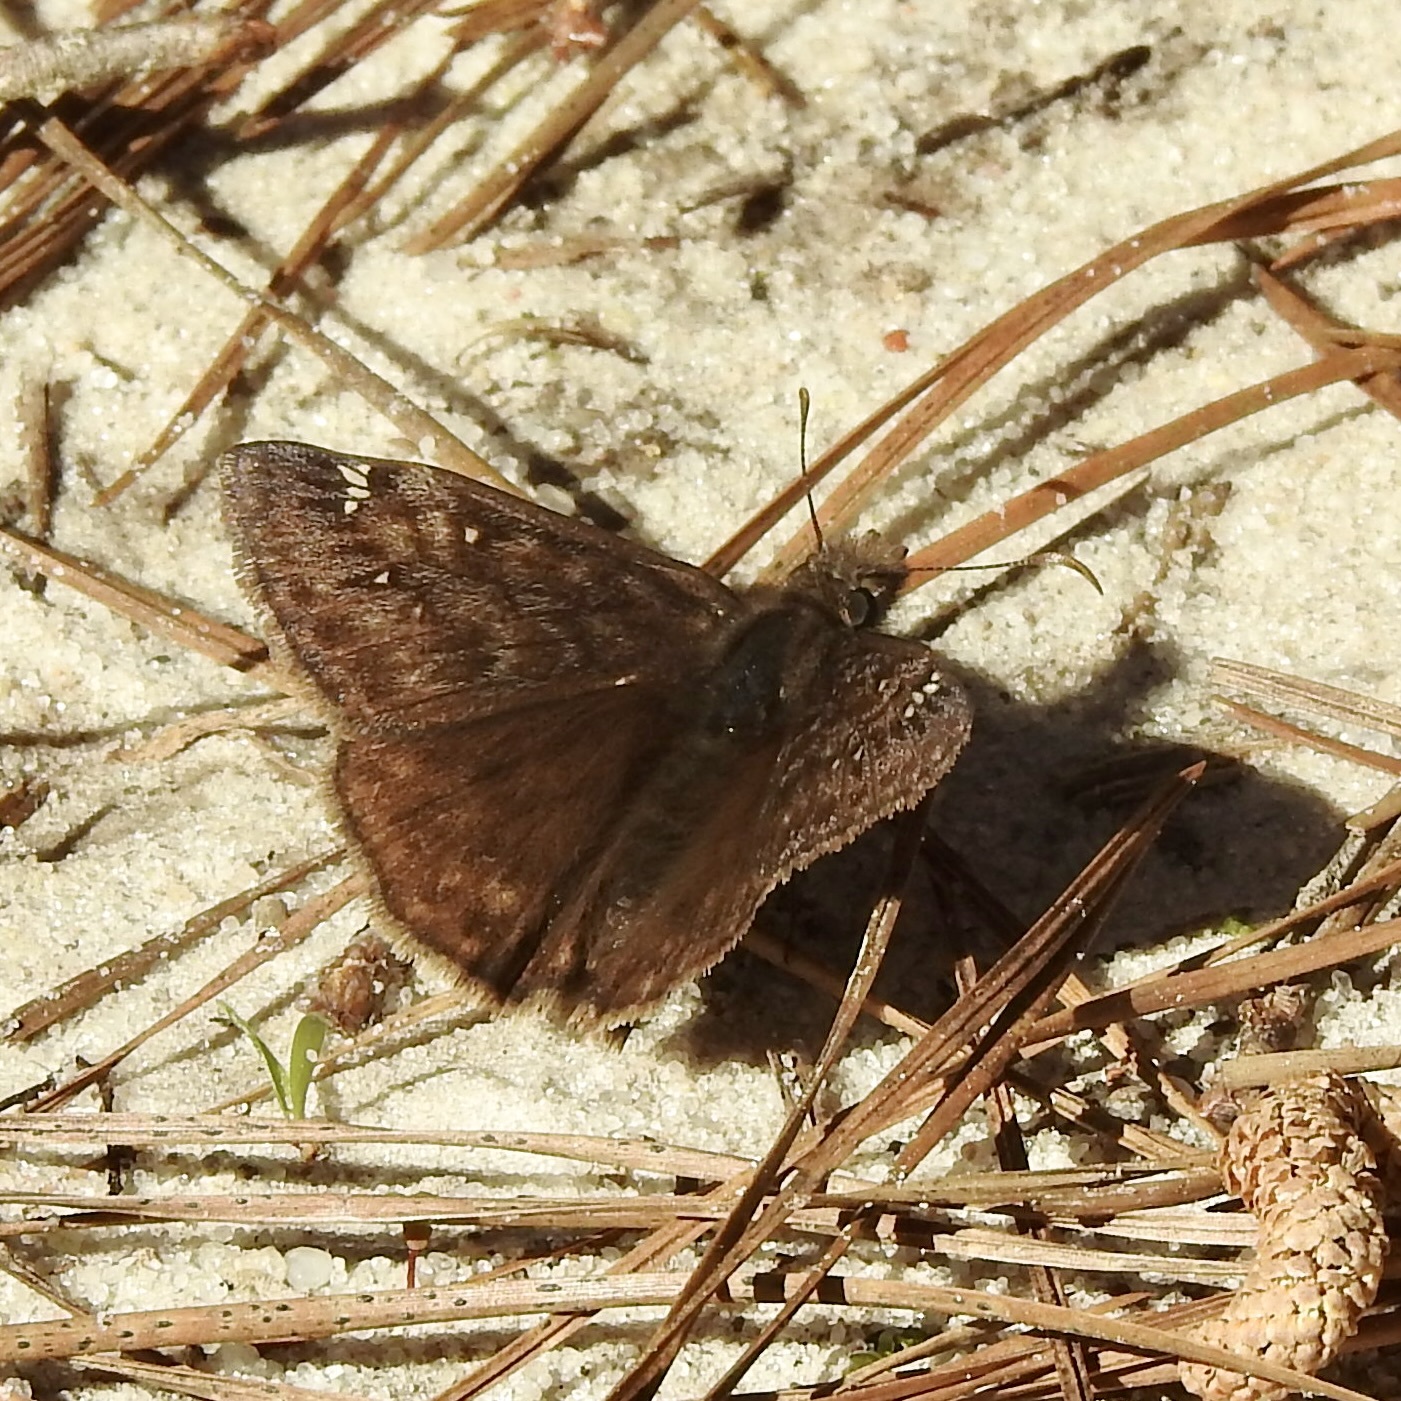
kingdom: Animalia
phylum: Arthropoda
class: Insecta
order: Lepidoptera
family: Hesperiidae
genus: Erynnis
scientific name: Erynnis juvenalis
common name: Juvenal's duskywing
